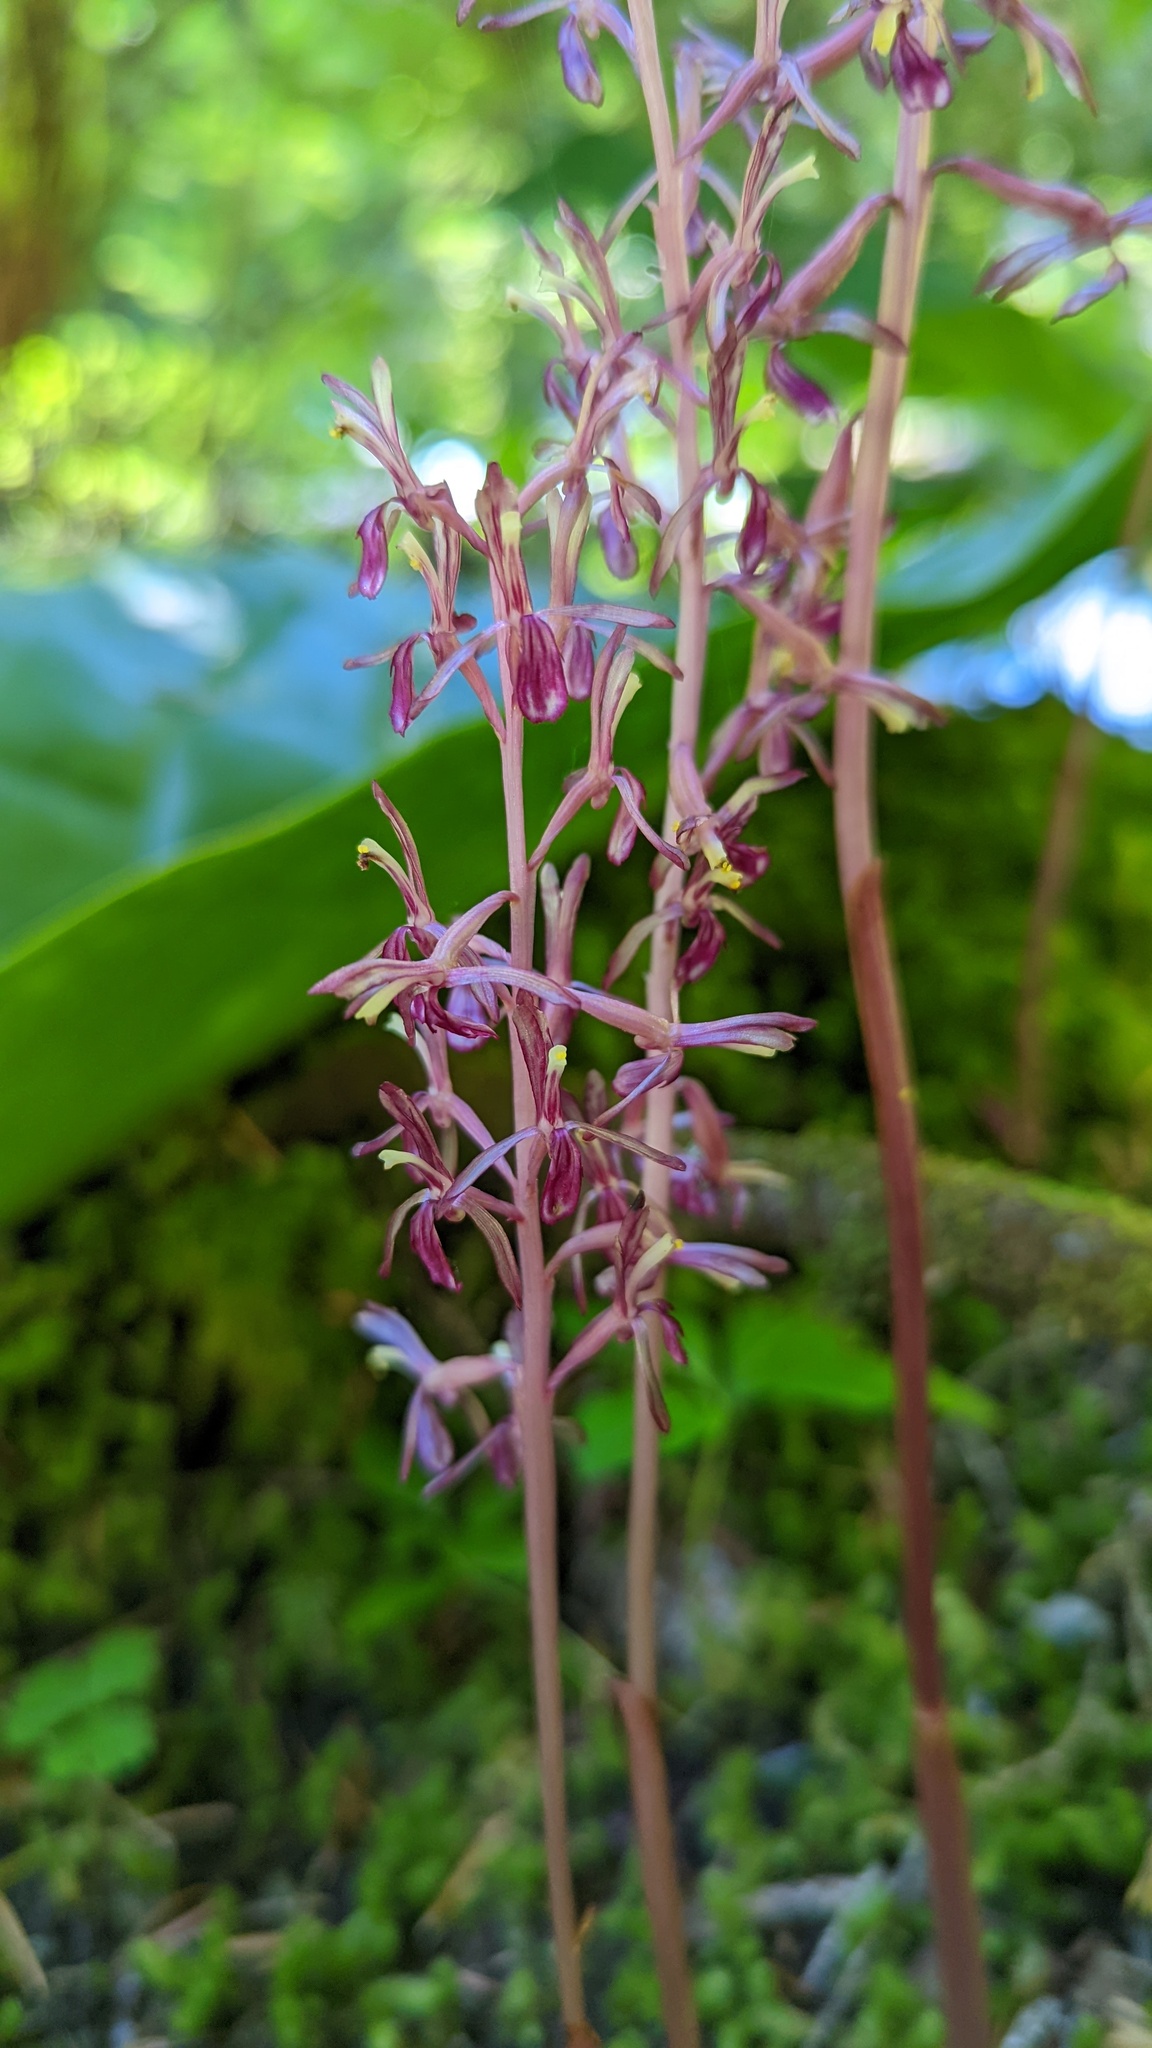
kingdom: Plantae
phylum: Tracheophyta
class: Liliopsida
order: Asparagales
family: Orchidaceae
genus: Corallorhiza
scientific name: Corallorhiza mertensiana
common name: Pacific coralroot
